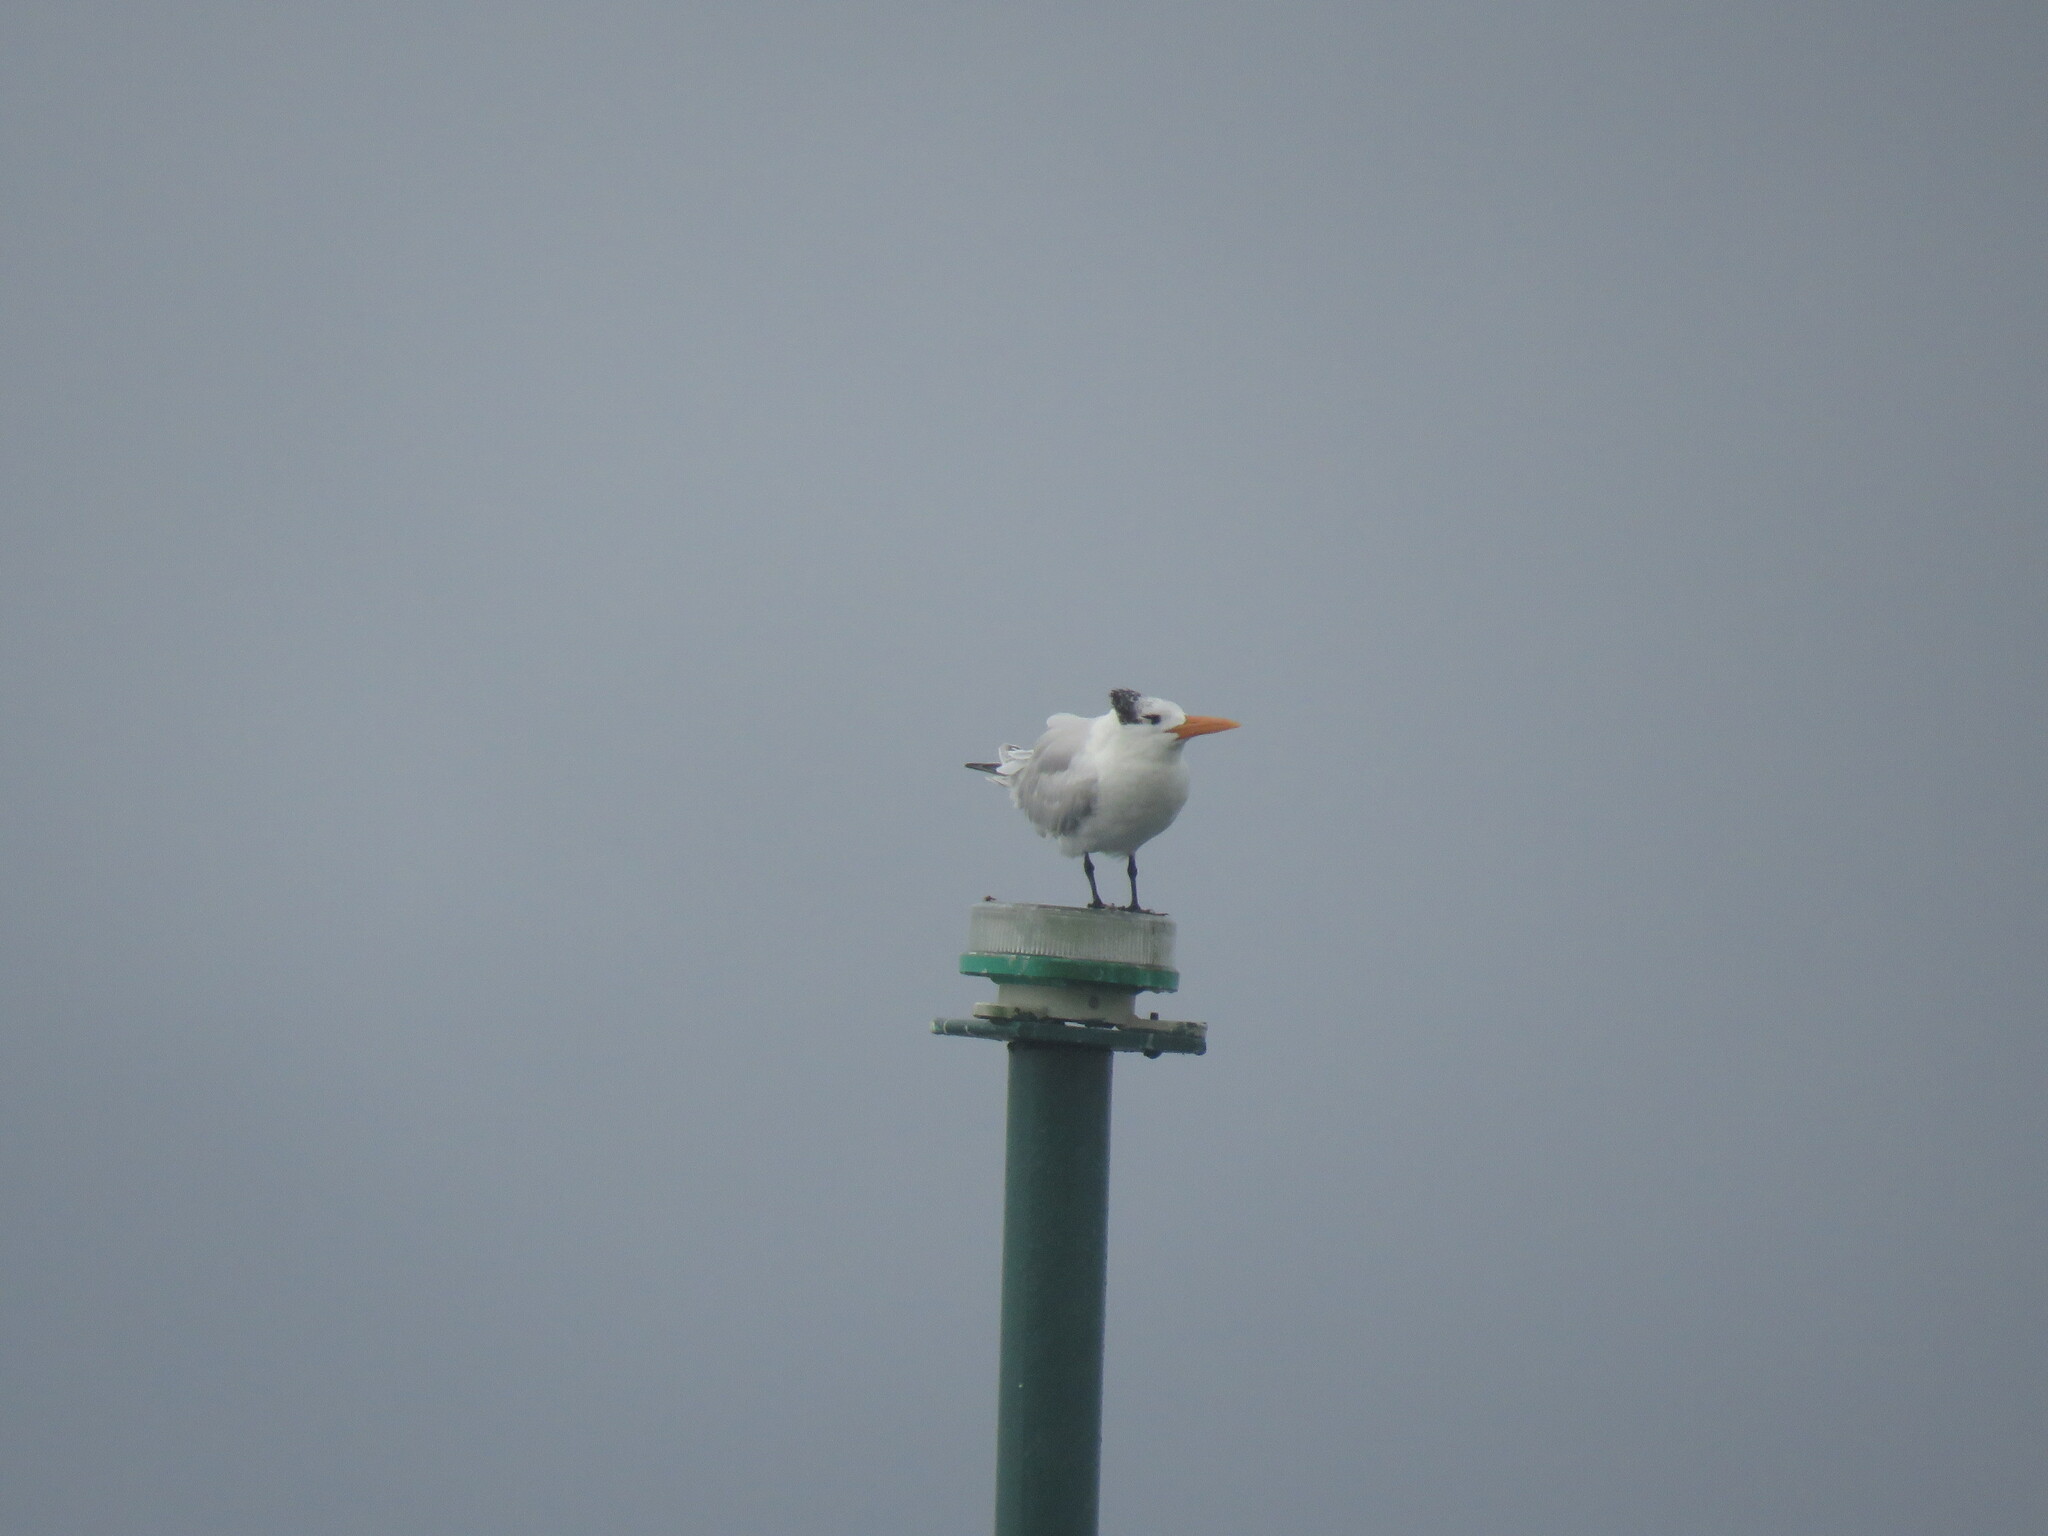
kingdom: Animalia
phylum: Chordata
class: Aves
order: Charadriiformes
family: Laridae
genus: Thalasseus
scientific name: Thalasseus maximus
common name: Royal tern
